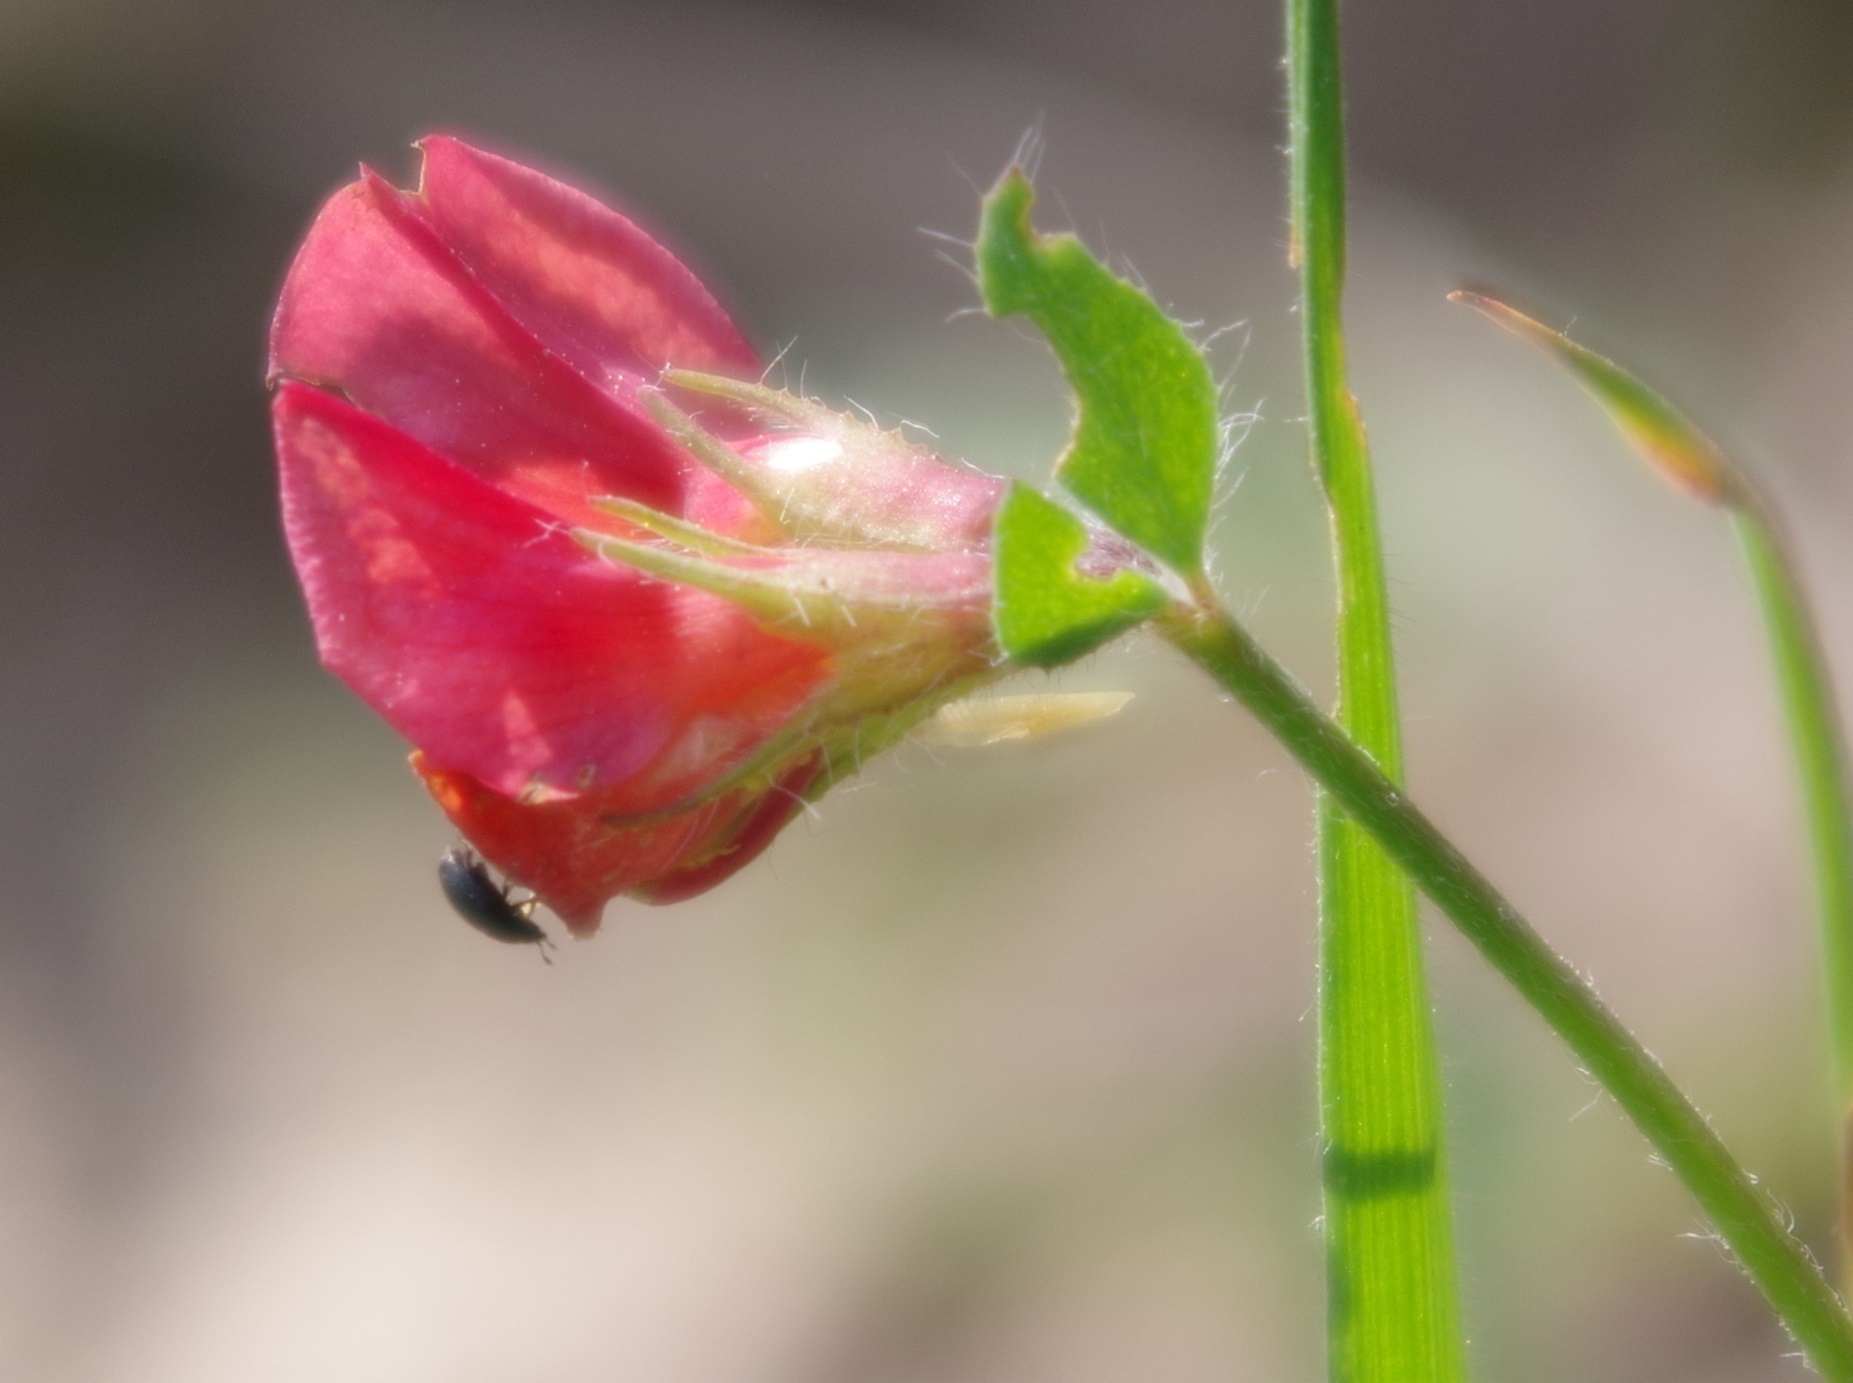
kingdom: Plantae
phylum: Tracheophyta
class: Magnoliopsida
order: Fabales
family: Fabaceae
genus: Lotus
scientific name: Lotus corniculatus
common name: Common bird's-foot-trefoil
